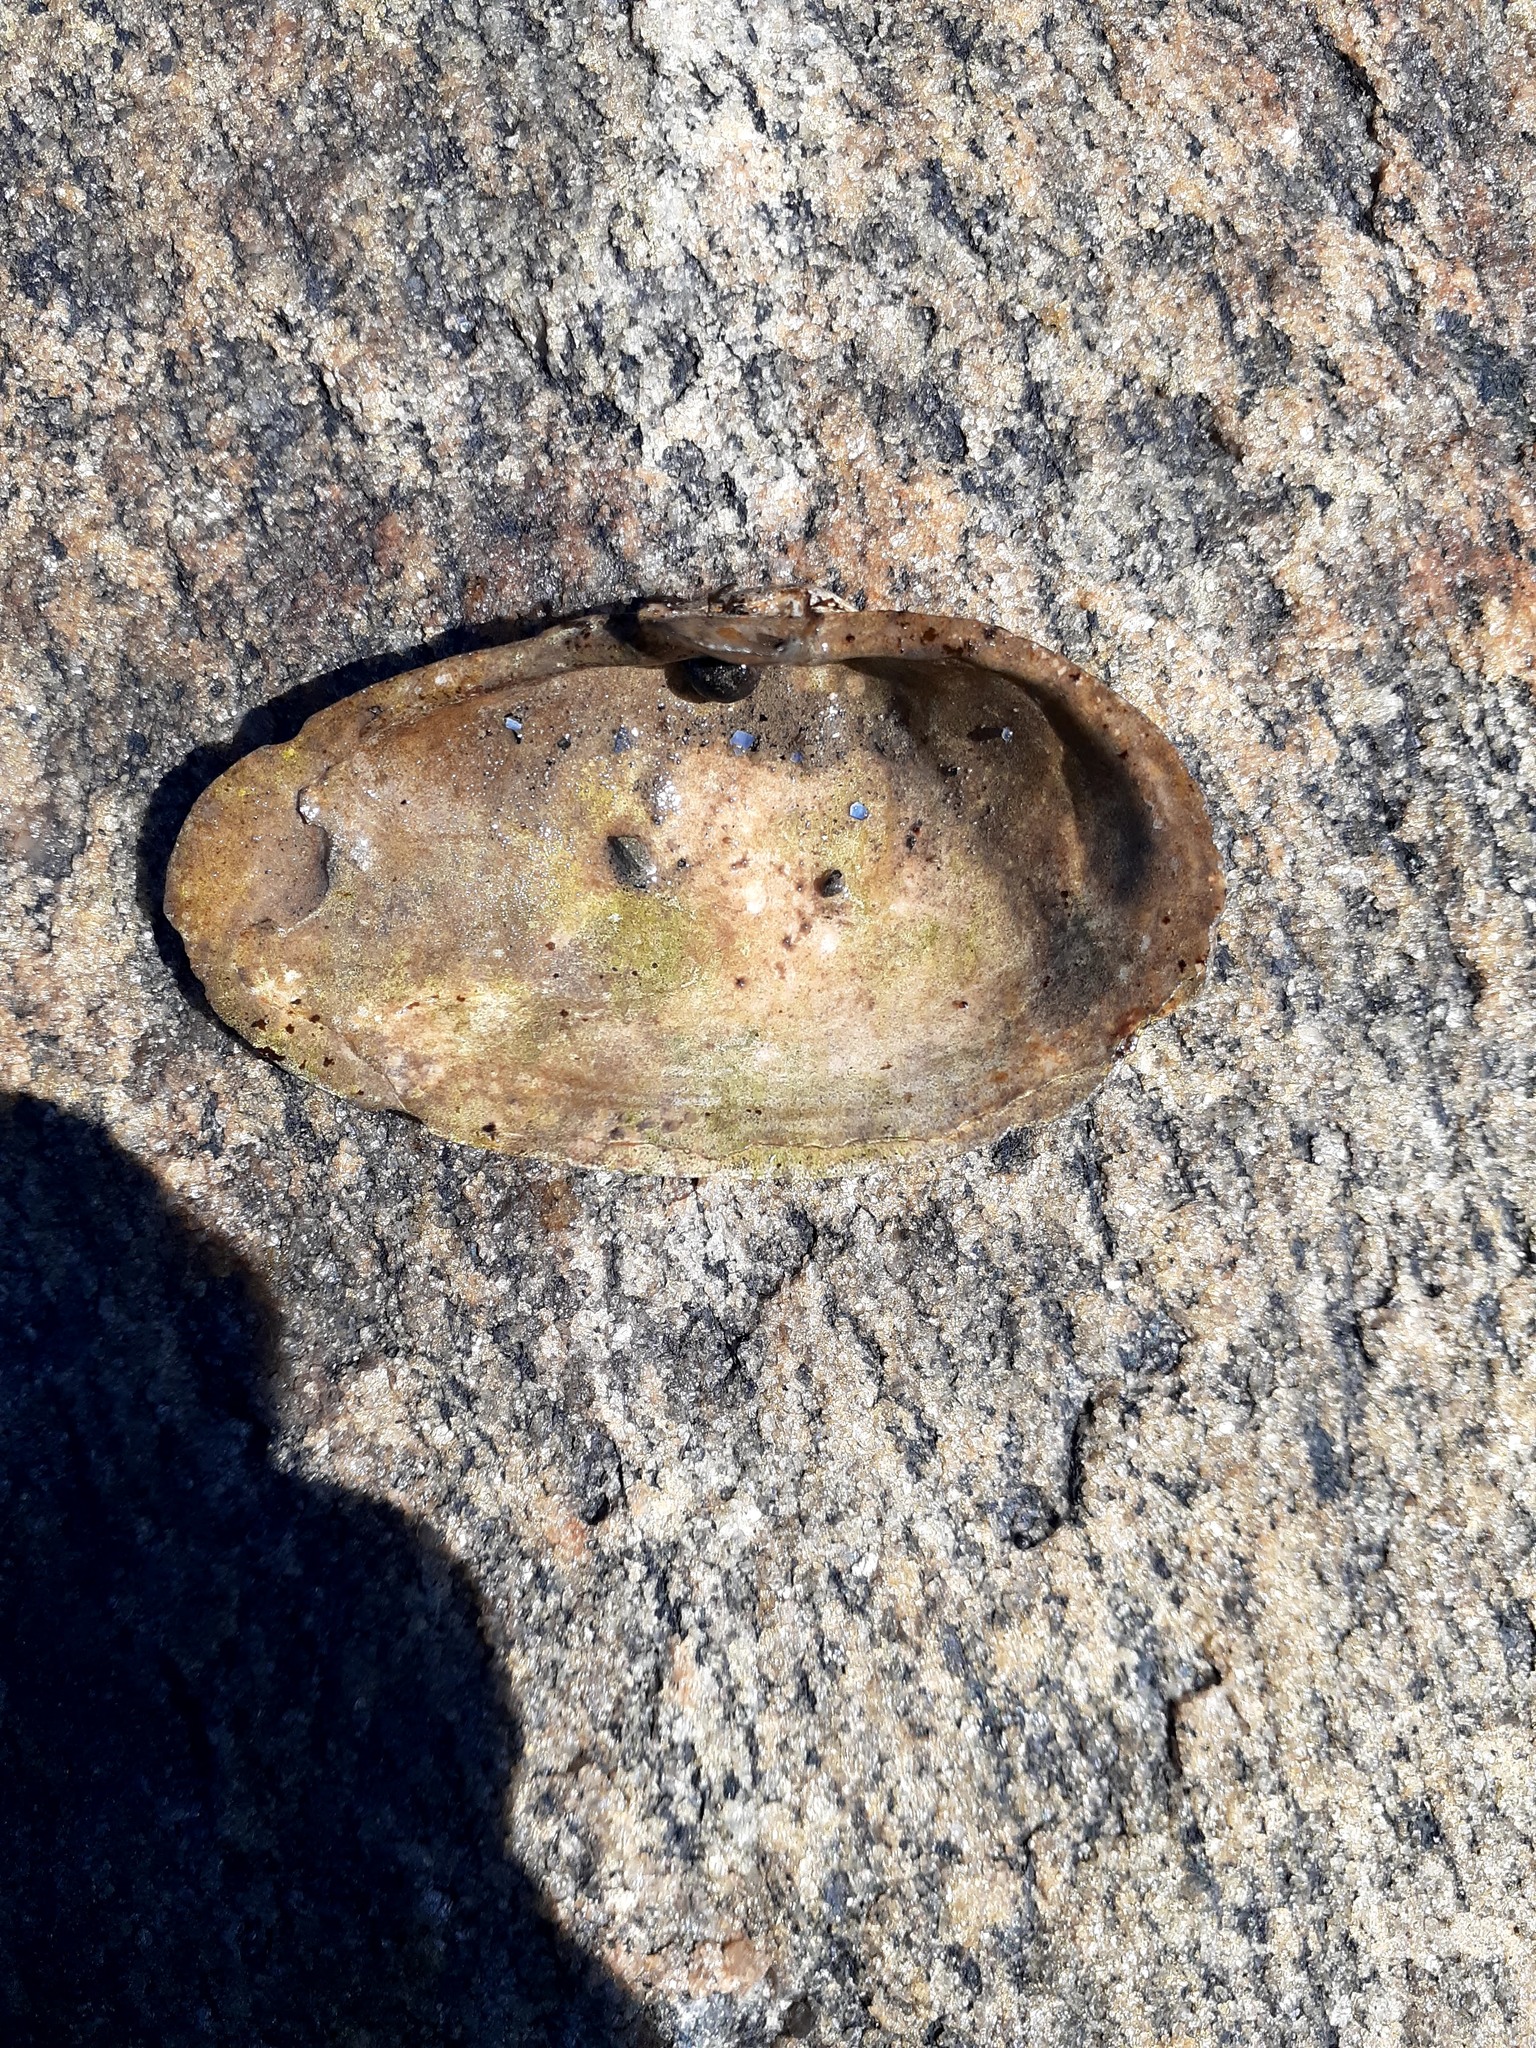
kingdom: Animalia
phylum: Mollusca
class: Bivalvia
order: Myida
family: Myidae
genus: Mya
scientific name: Mya arenaria
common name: Soft-shelled clam
